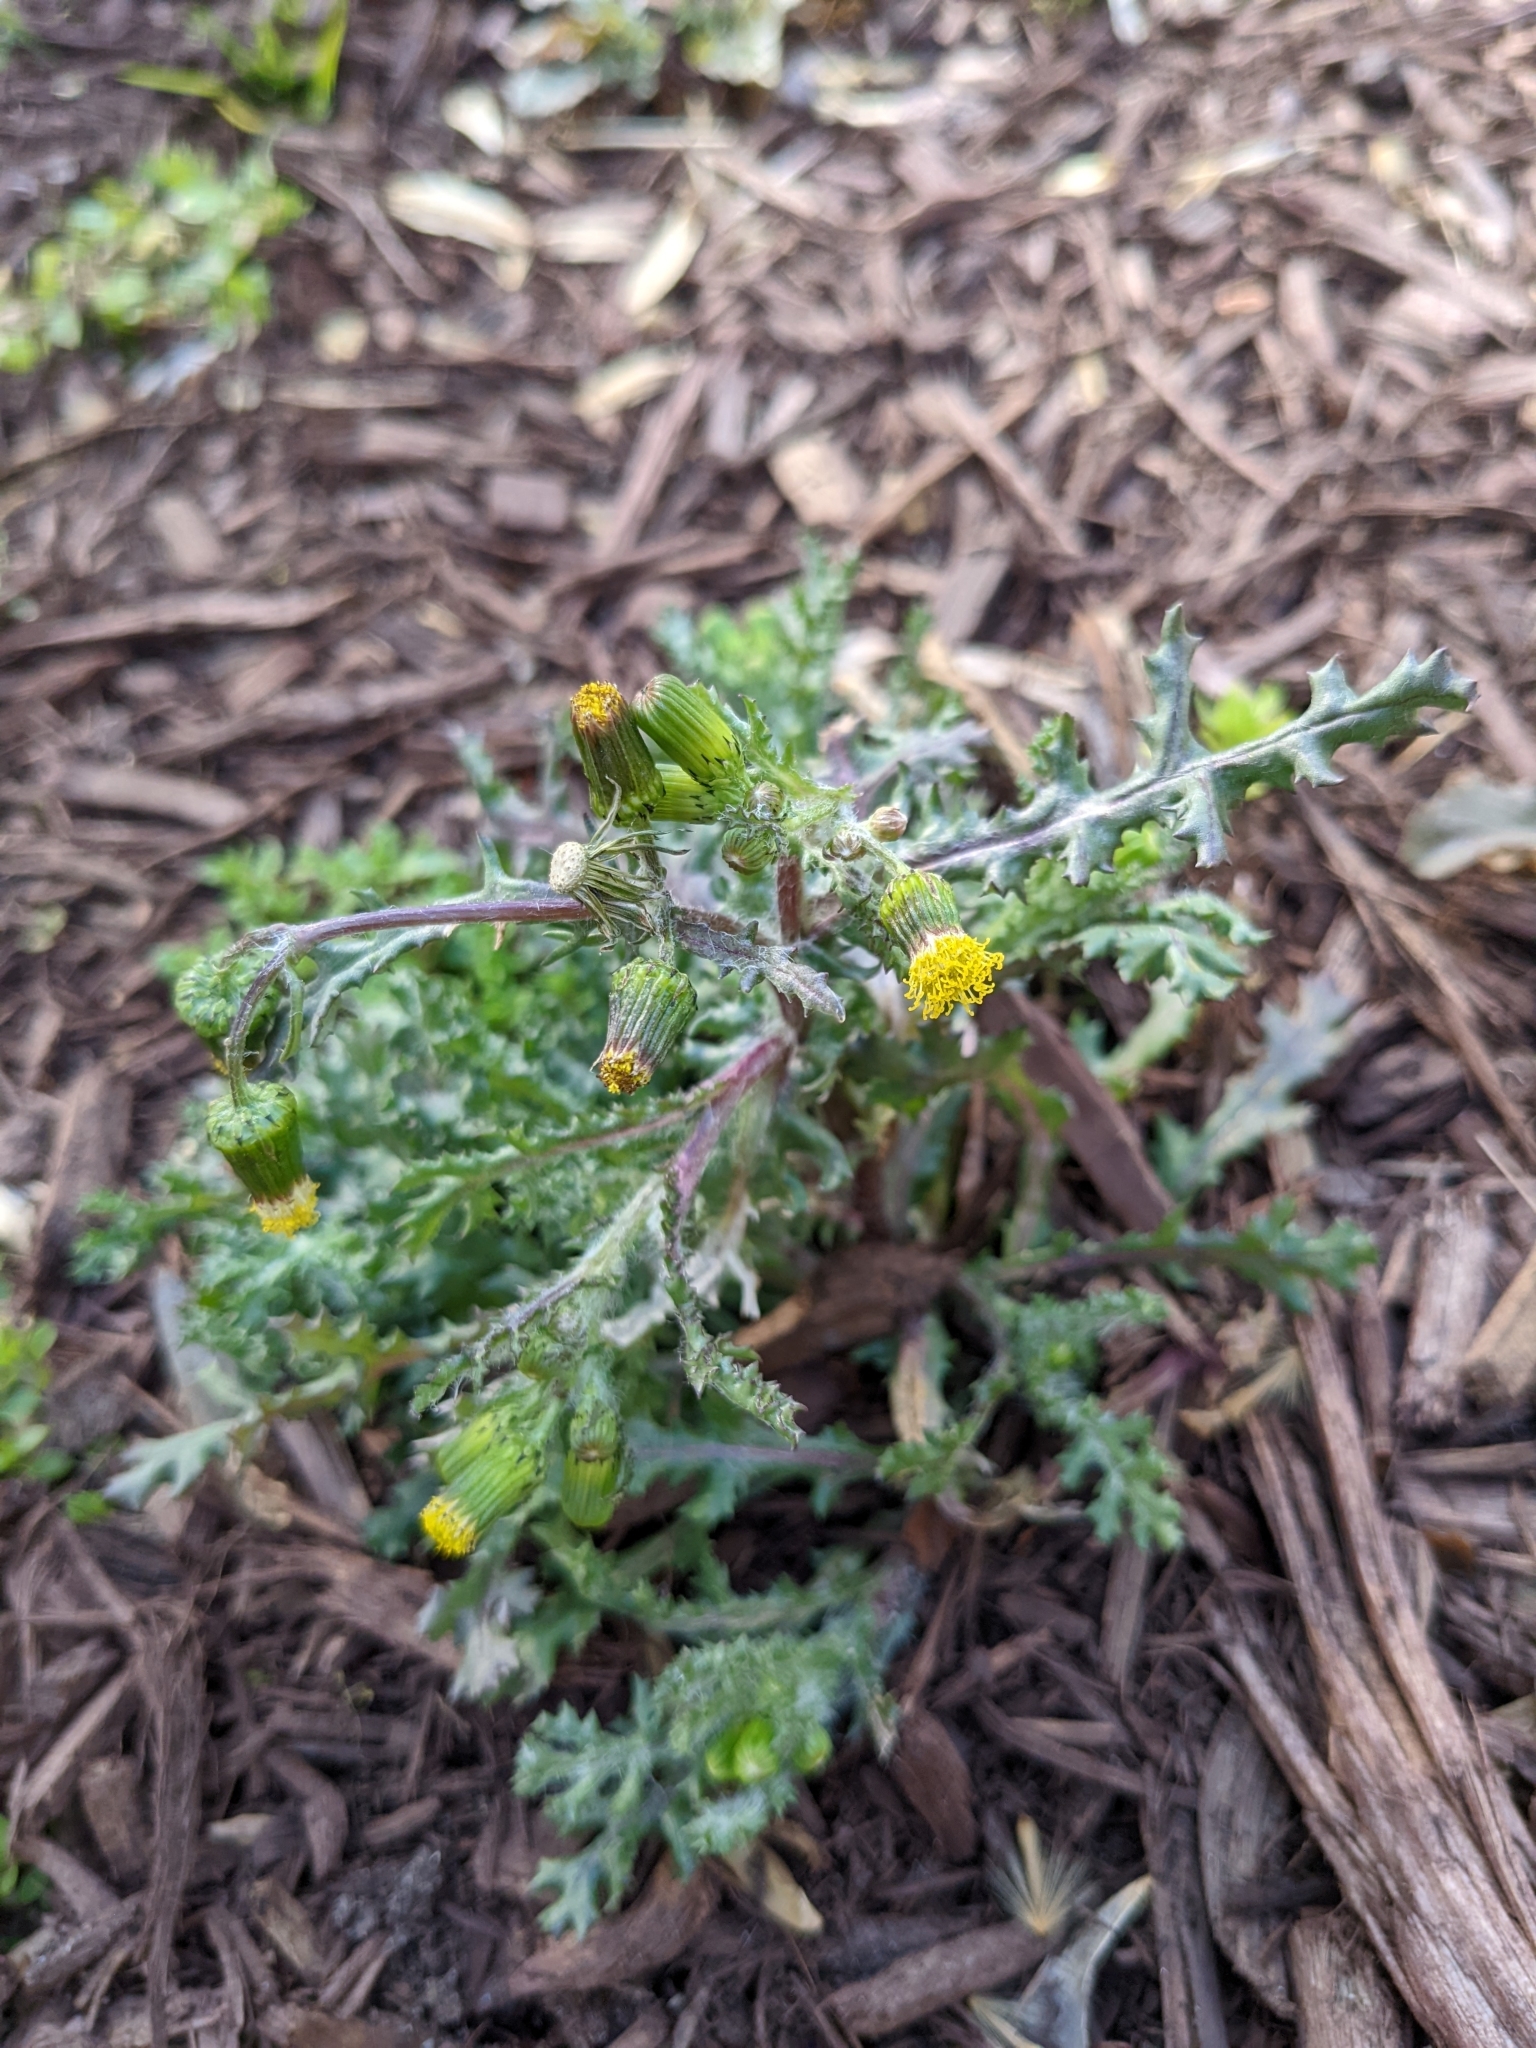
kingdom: Plantae
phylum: Tracheophyta
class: Magnoliopsida
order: Asterales
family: Asteraceae
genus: Senecio
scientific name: Senecio vulgaris
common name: Old-man-in-the-spring
